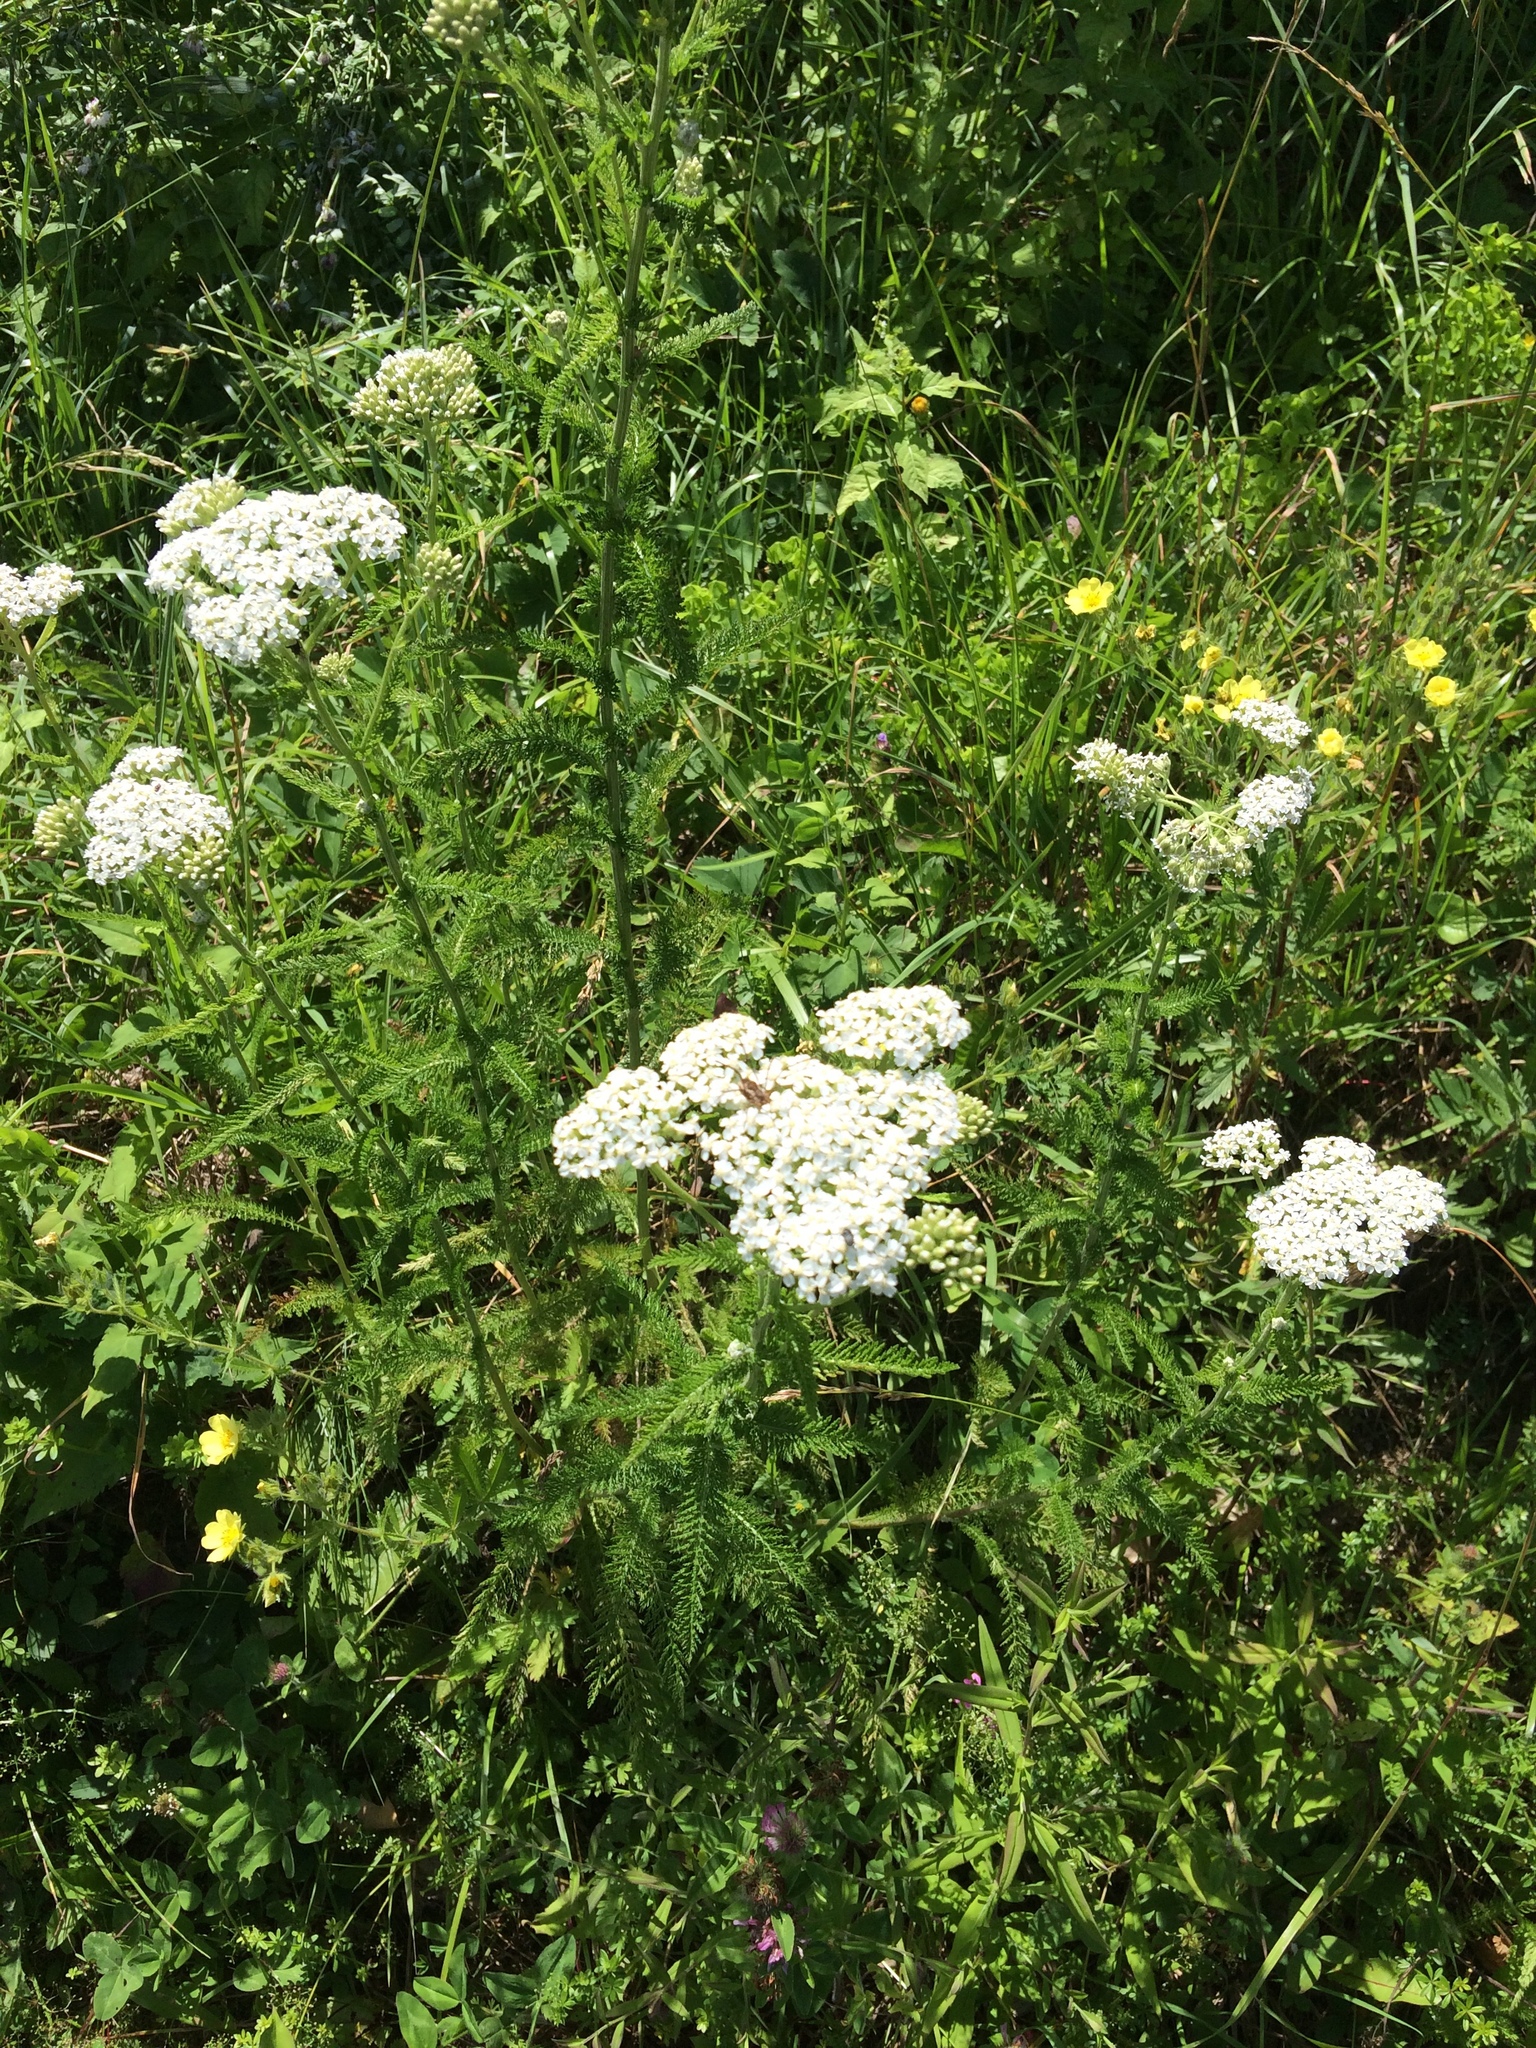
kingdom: Plantae
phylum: Tracheophyta
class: Magnoliopsida
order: Asterales
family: Asteraceae
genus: Achillea
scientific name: Achillea millefolium
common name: Yarrow
